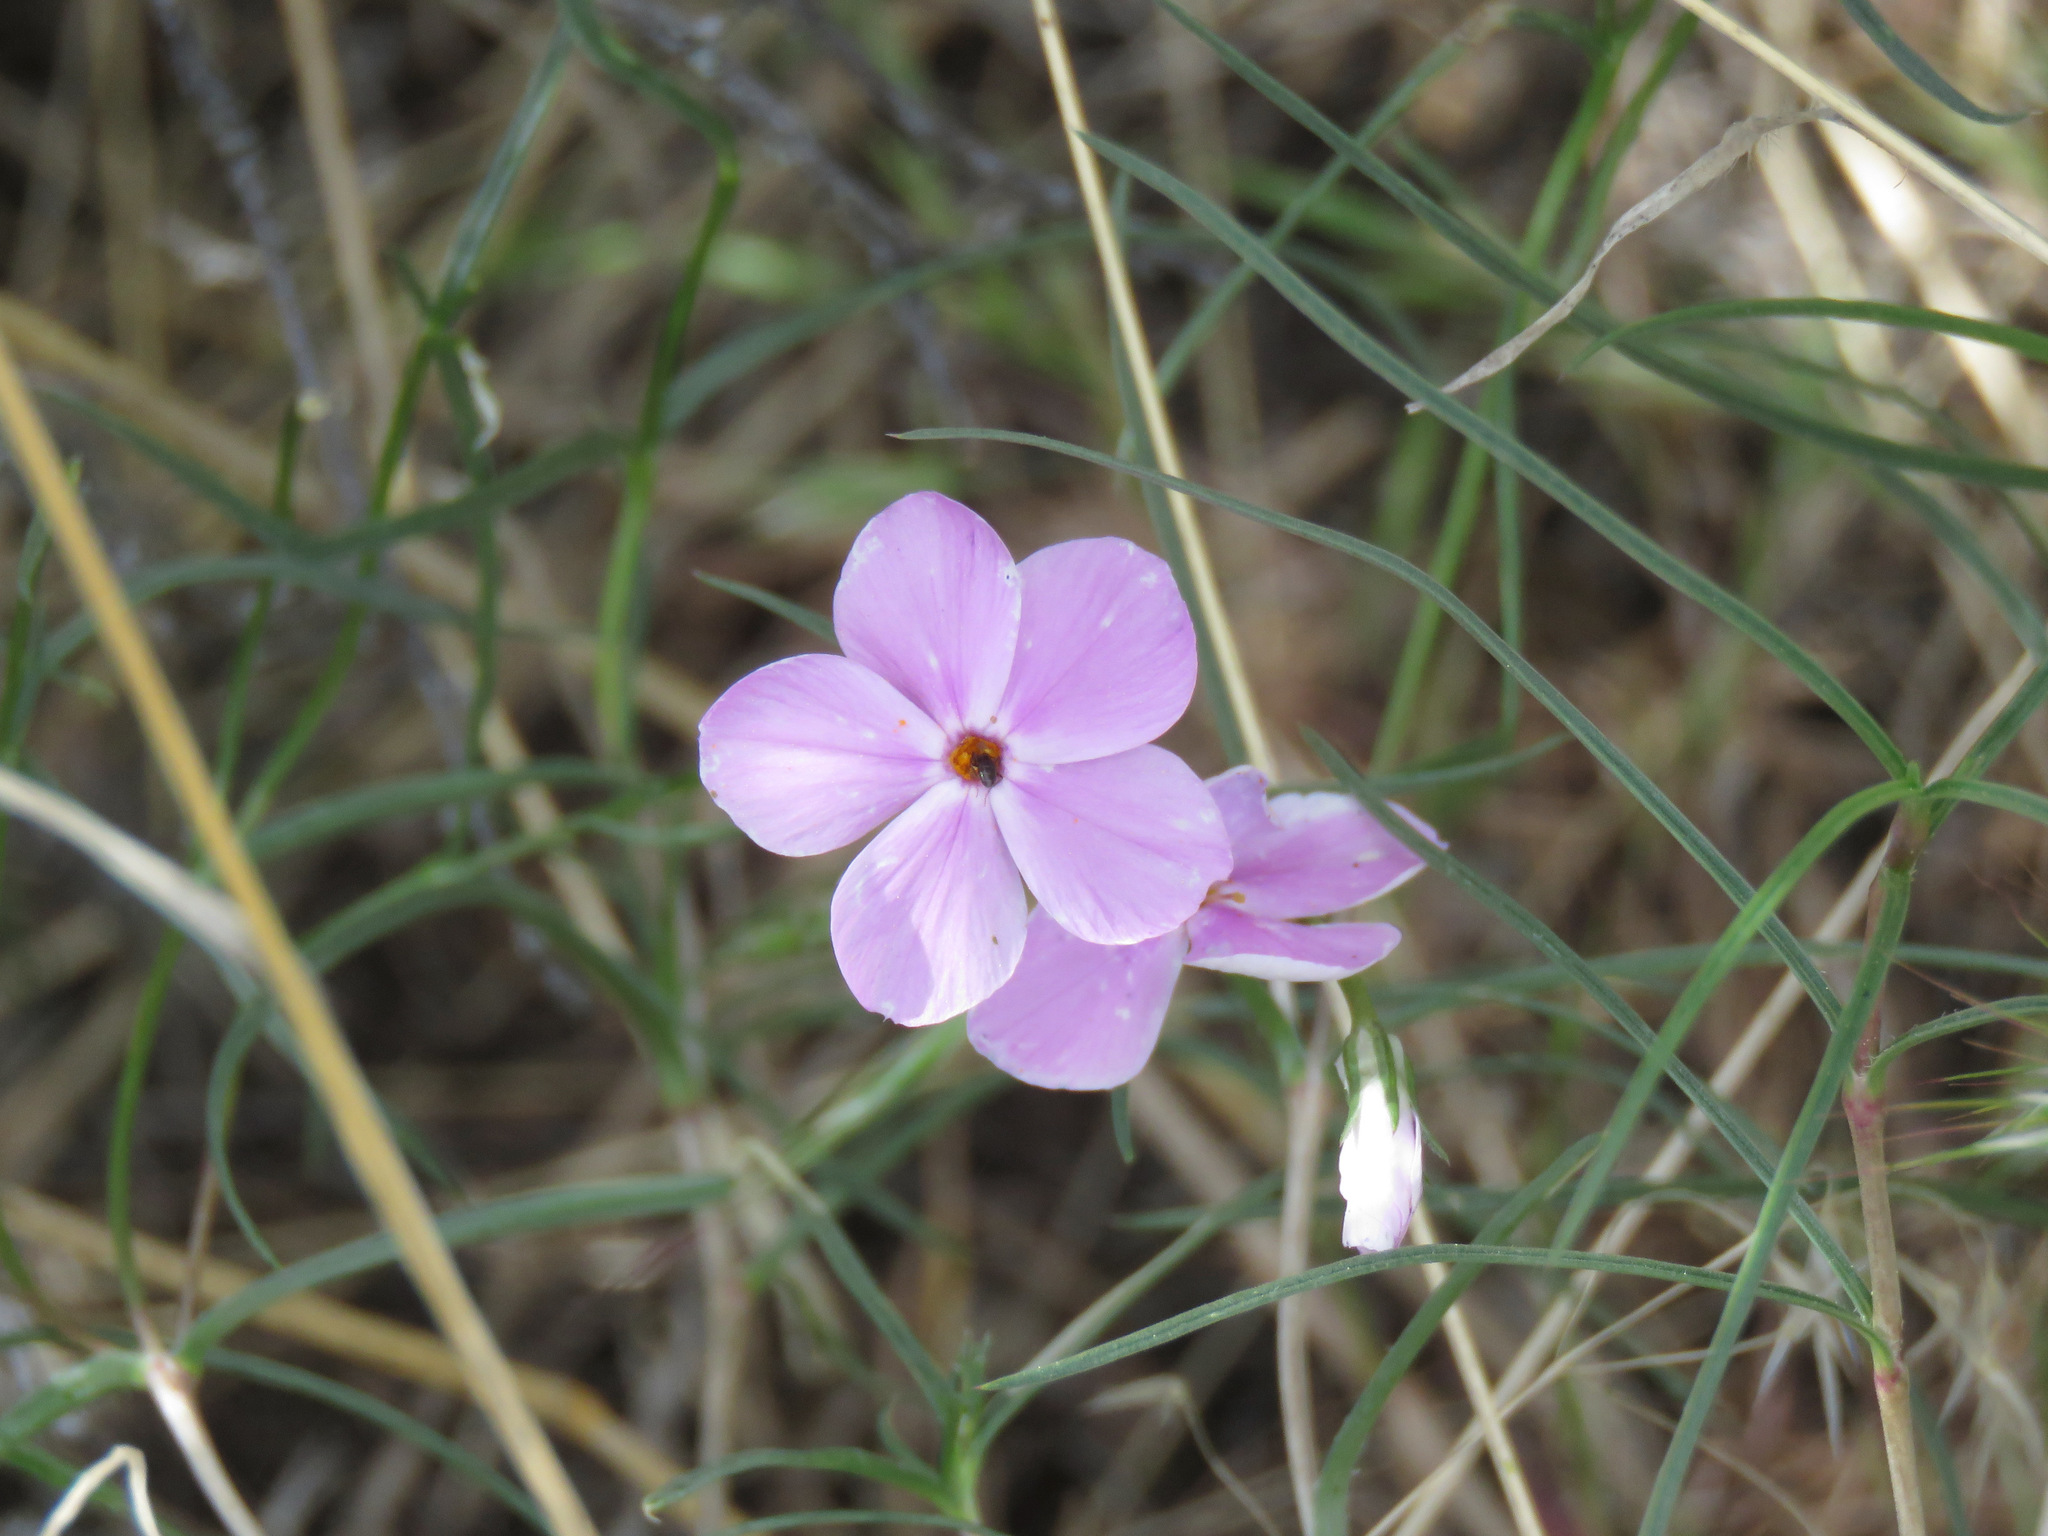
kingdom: Plantae
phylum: Tracheophyta
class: Magnoliopsida
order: Ericales
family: Polemoniaceae
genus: Phlox
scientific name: Phlox longifolia
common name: Longleaf phlox
